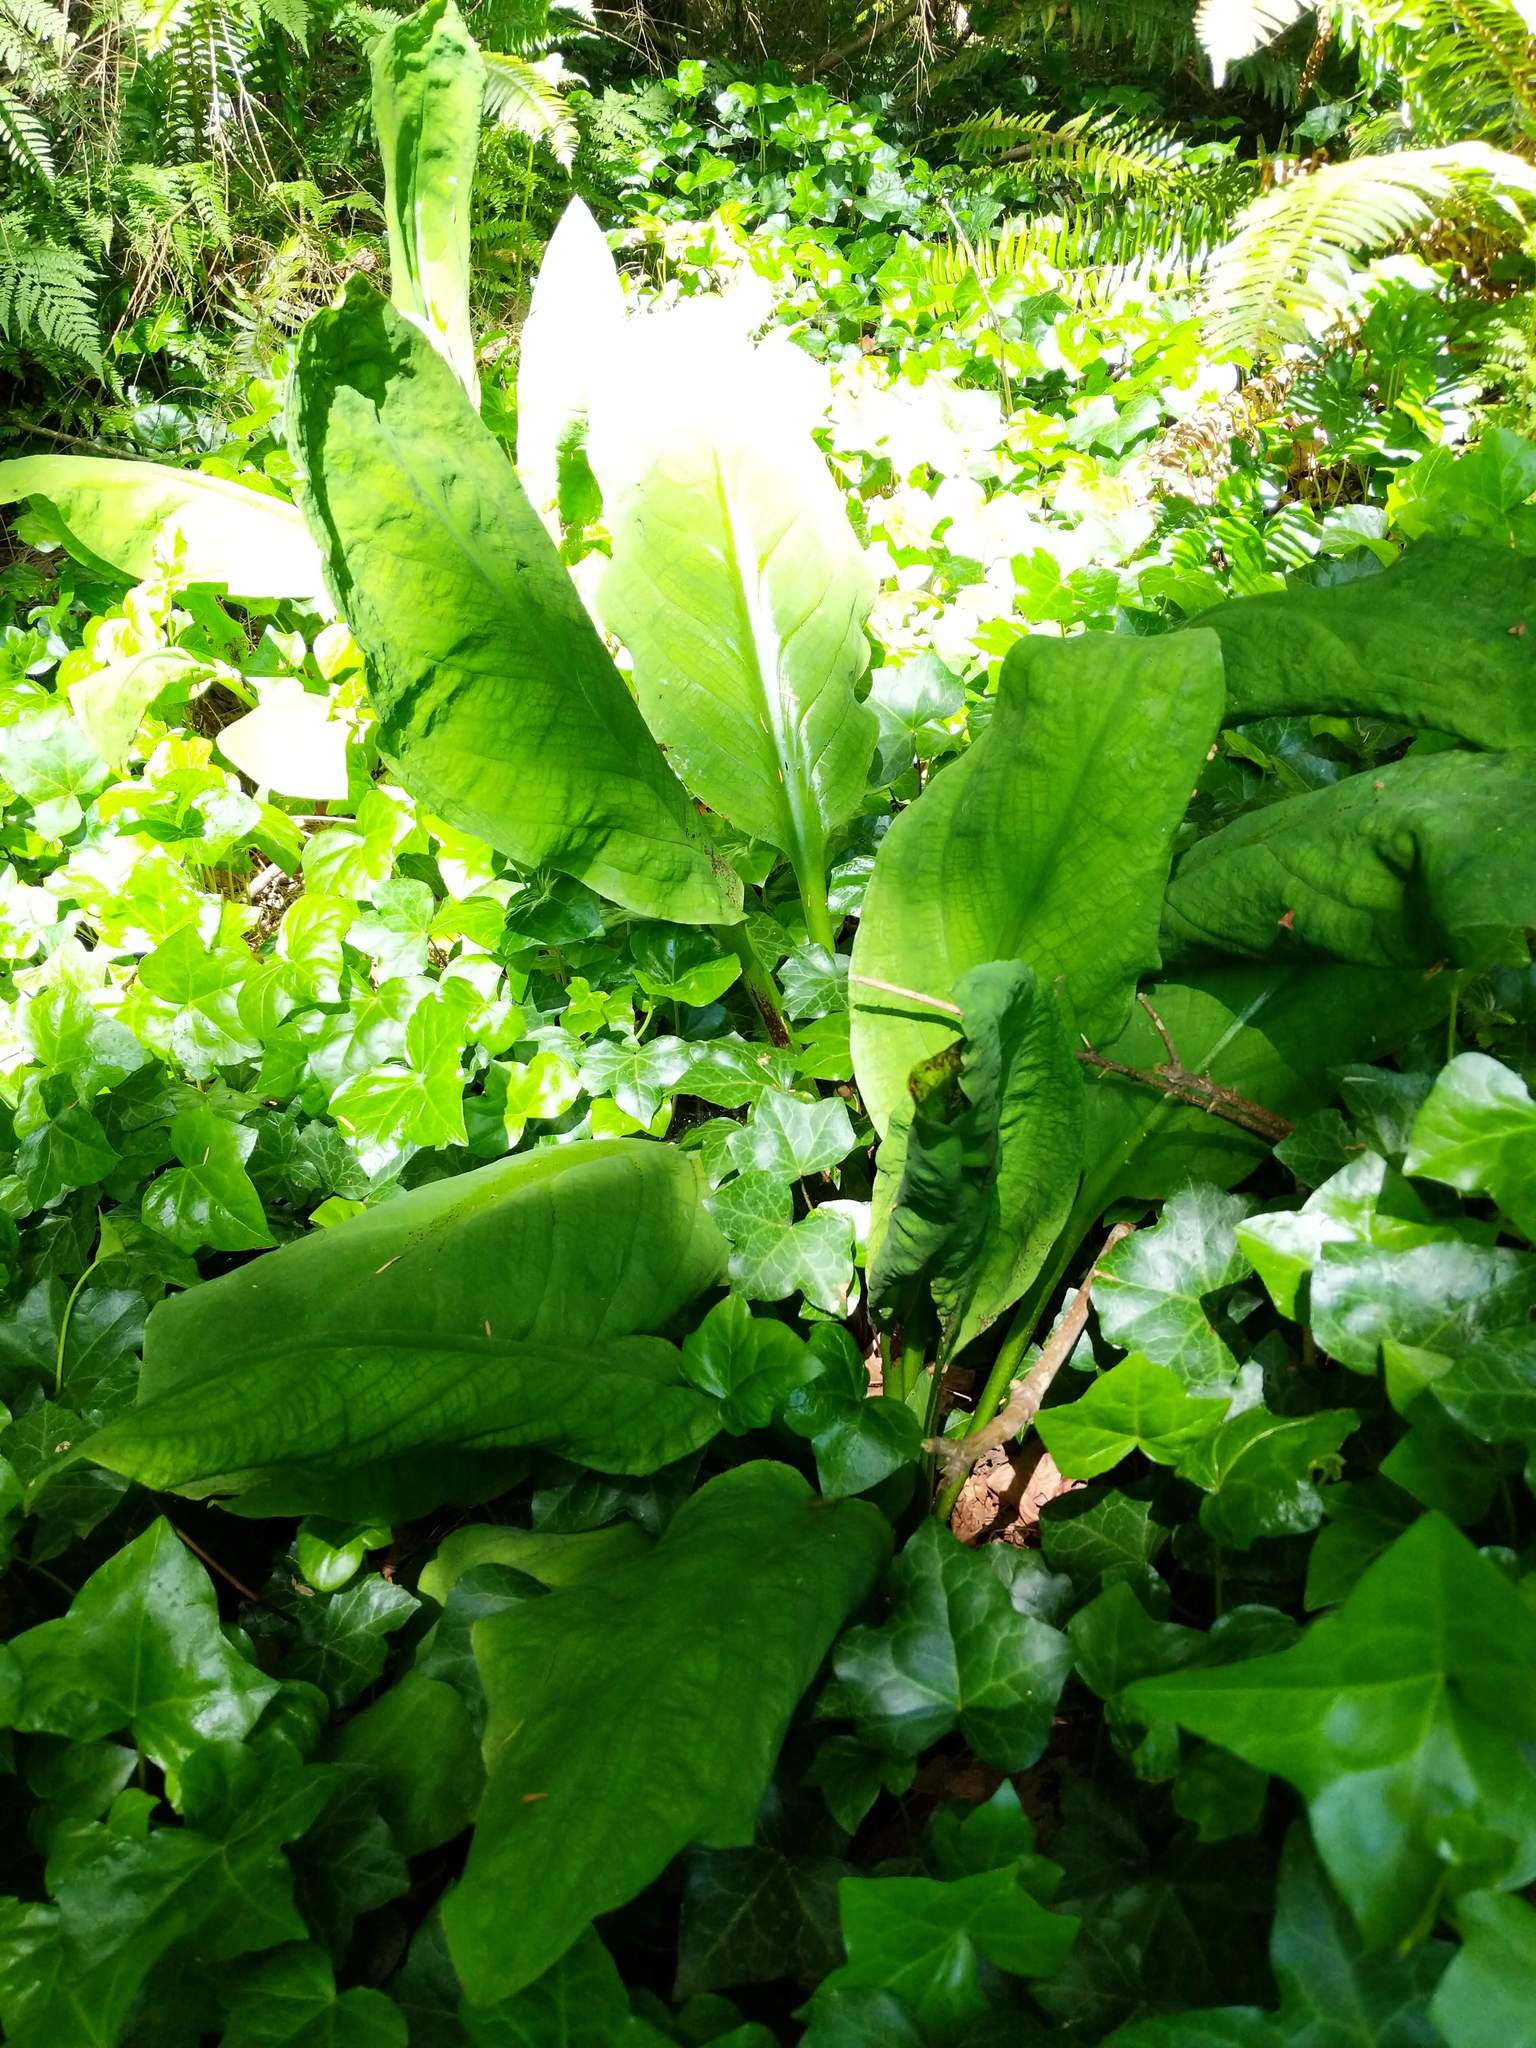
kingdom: Plantae
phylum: Tracheophyta
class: Liliopsida
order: Alismatales
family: Araceae
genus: Lysichiton
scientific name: Lysichiton americanus
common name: American skunk cabbage
